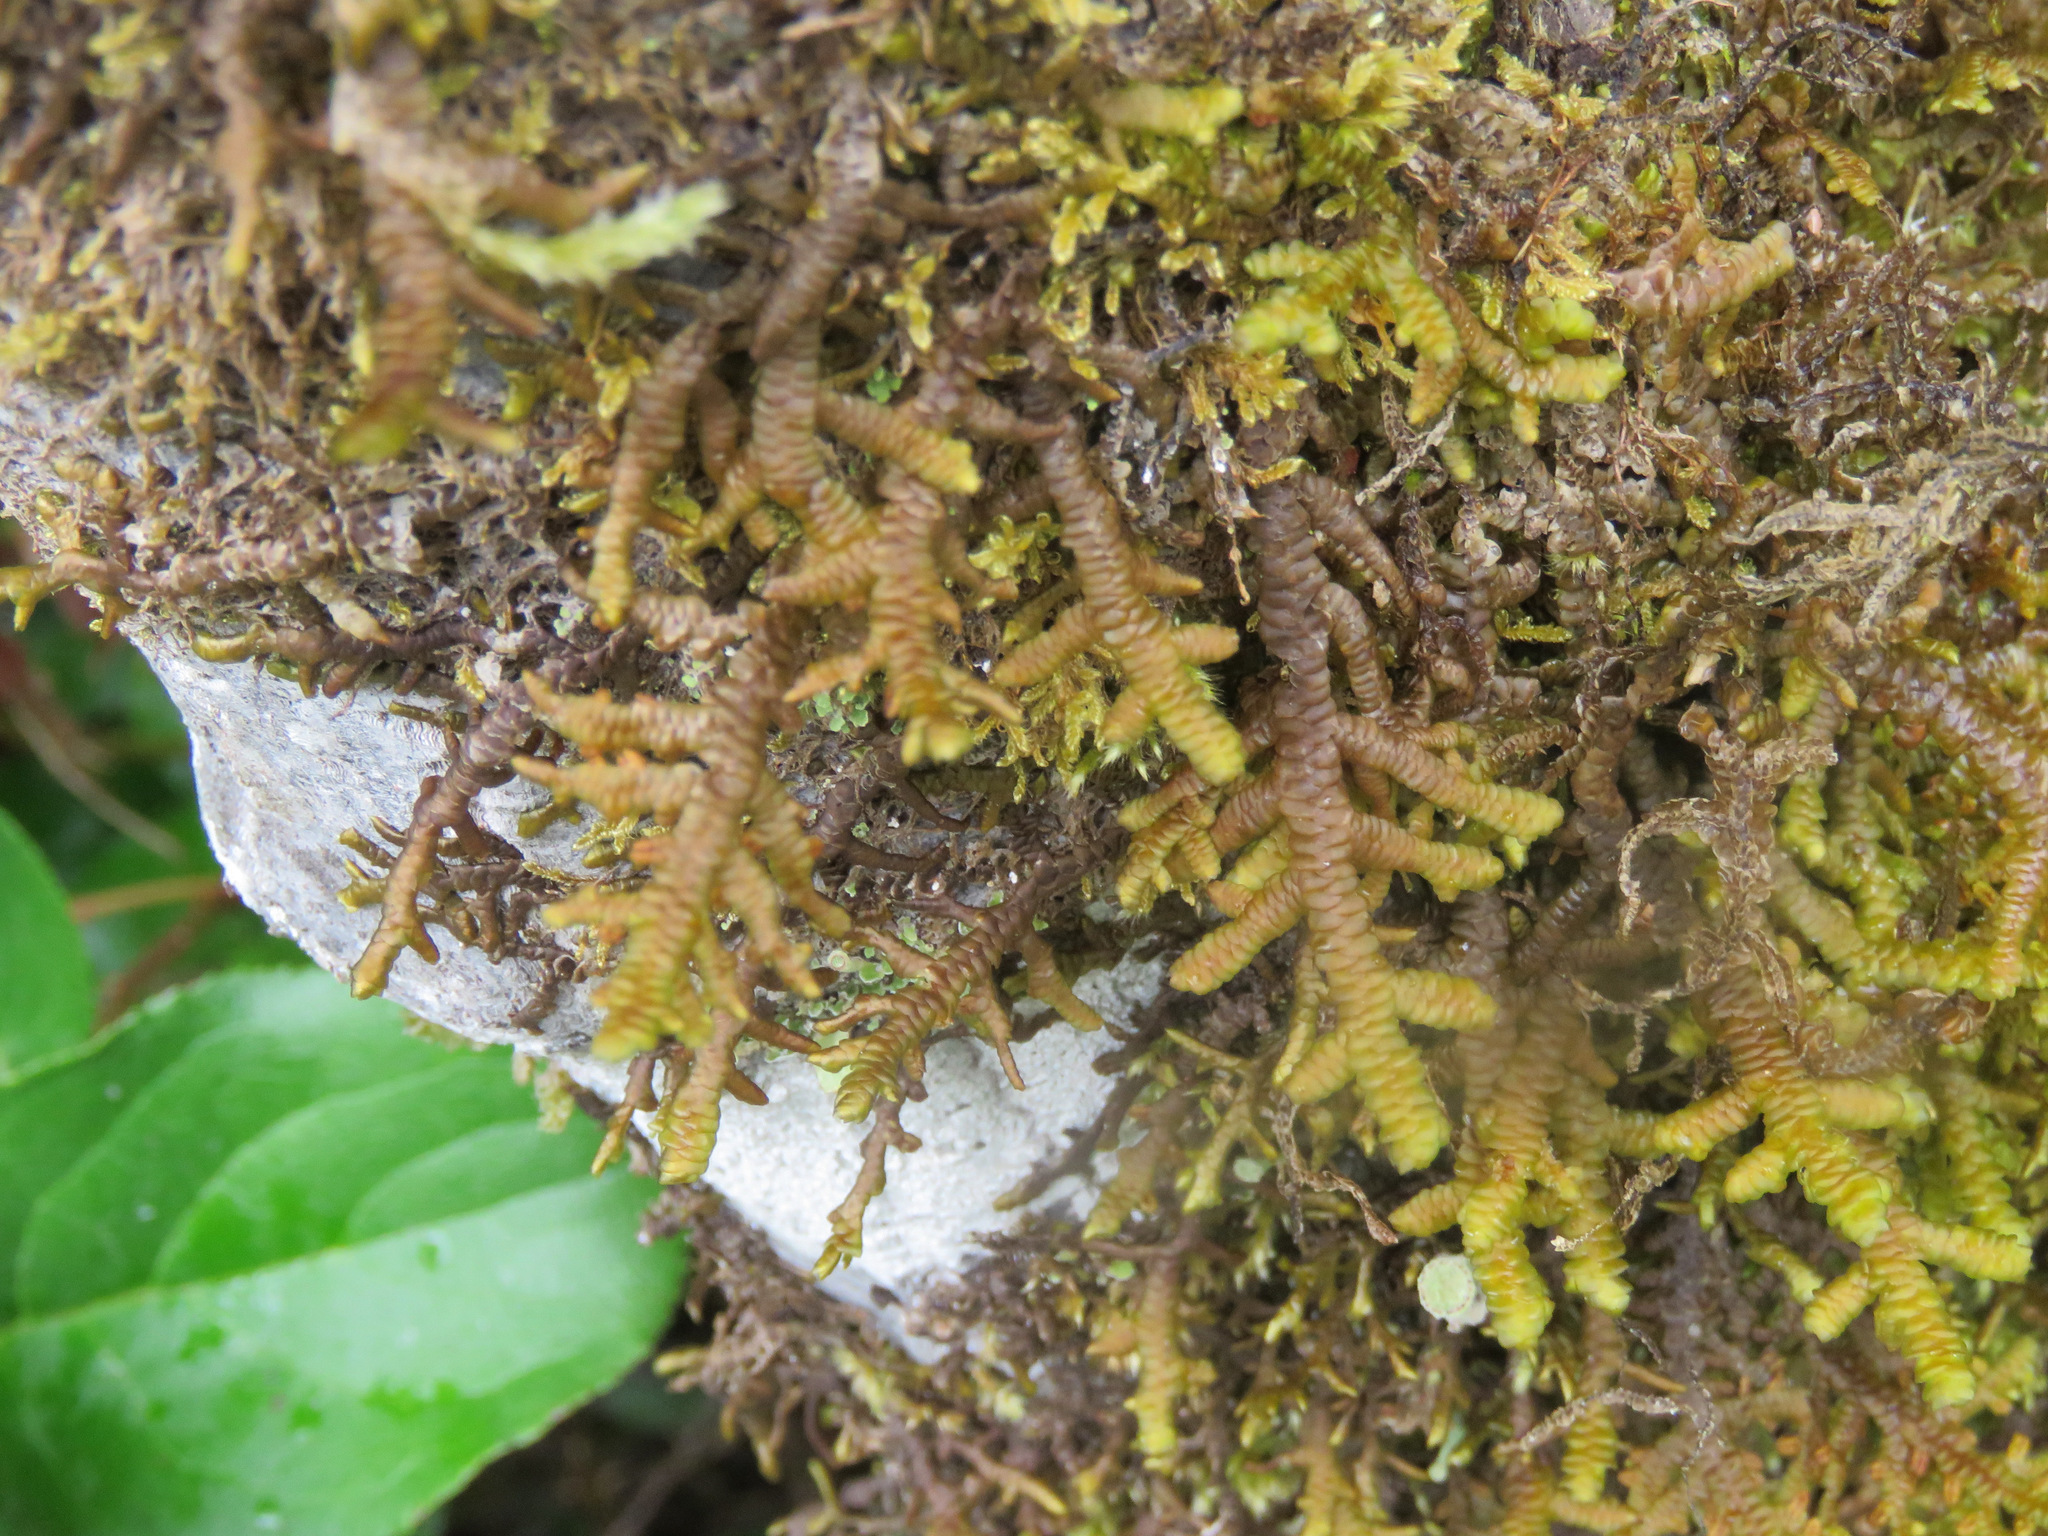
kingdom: Plantae
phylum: Marchantiophyta
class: Jungermanniopsida
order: Porellales
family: Porellaceae
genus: Porella
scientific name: Porella navicularis
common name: Tree ruffle liverwort
